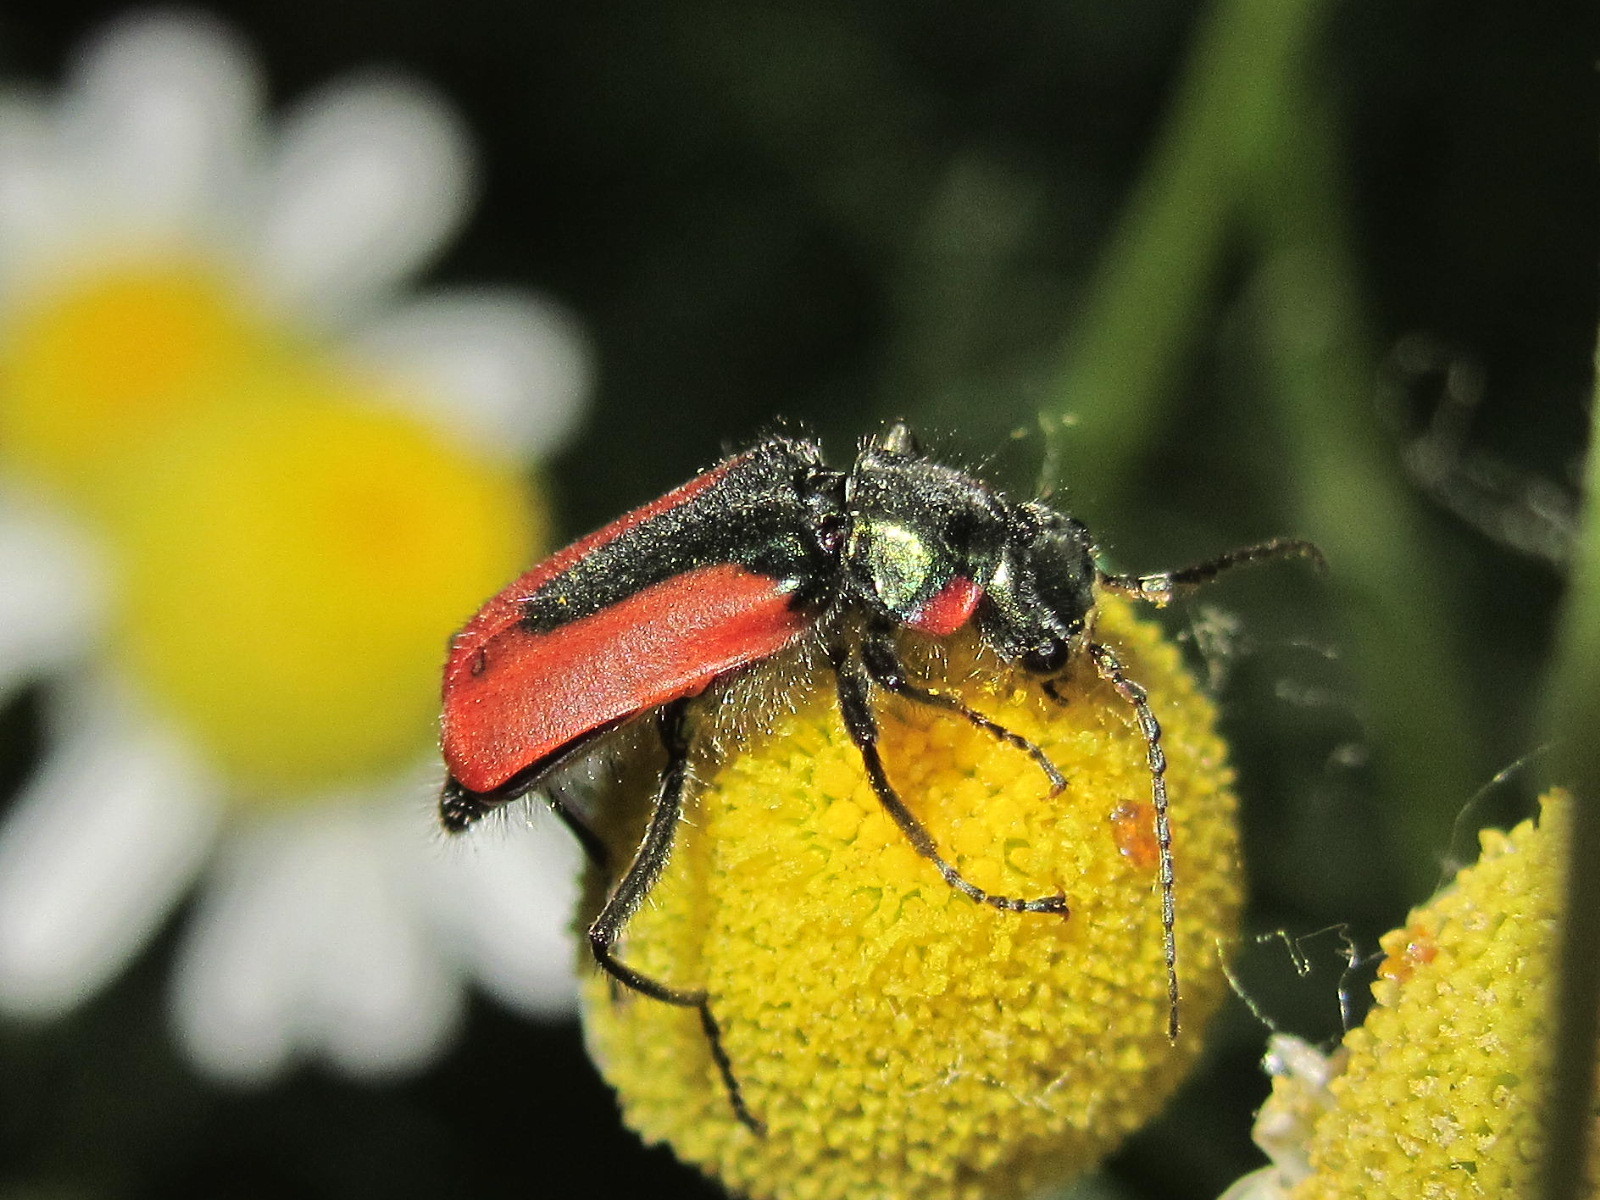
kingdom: Animalia
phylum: Arthropoda
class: Insecta
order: Coleoptera
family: Melyridae
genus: Malachius
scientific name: Malachius aeneus
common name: Scarlet malachite beetle
